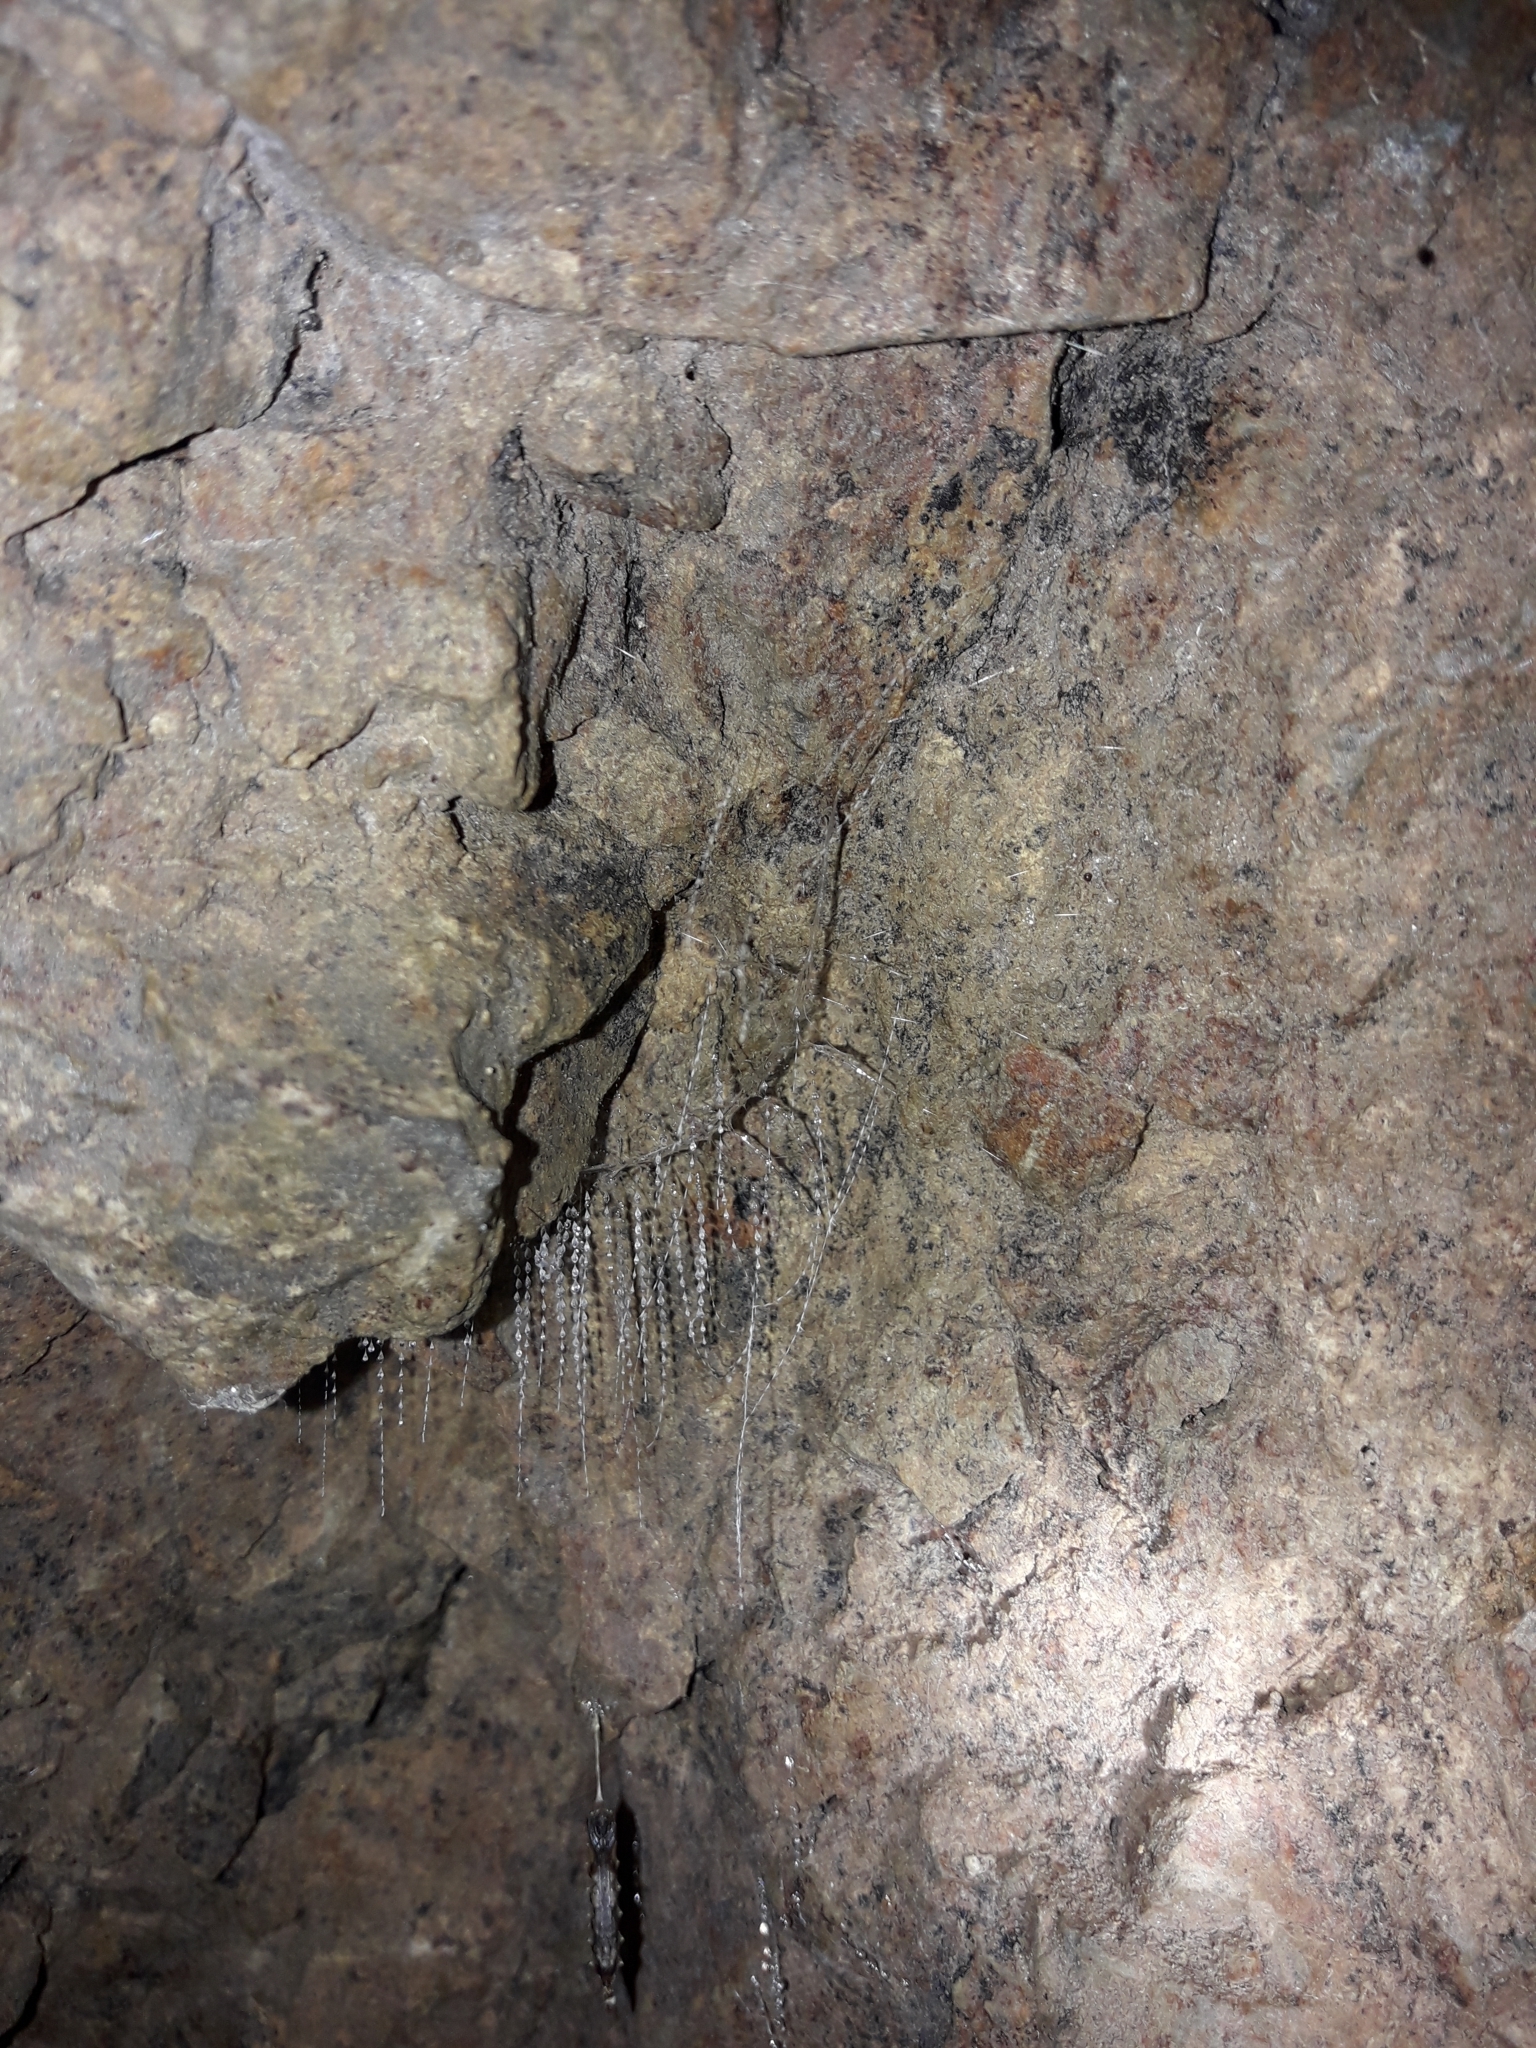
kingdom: Animalia
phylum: Arthropoda
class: Insecta
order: Orthoptera
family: Rhaphidophoridae
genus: Pachyrhamma
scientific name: Pachyrhamma edwardsii
